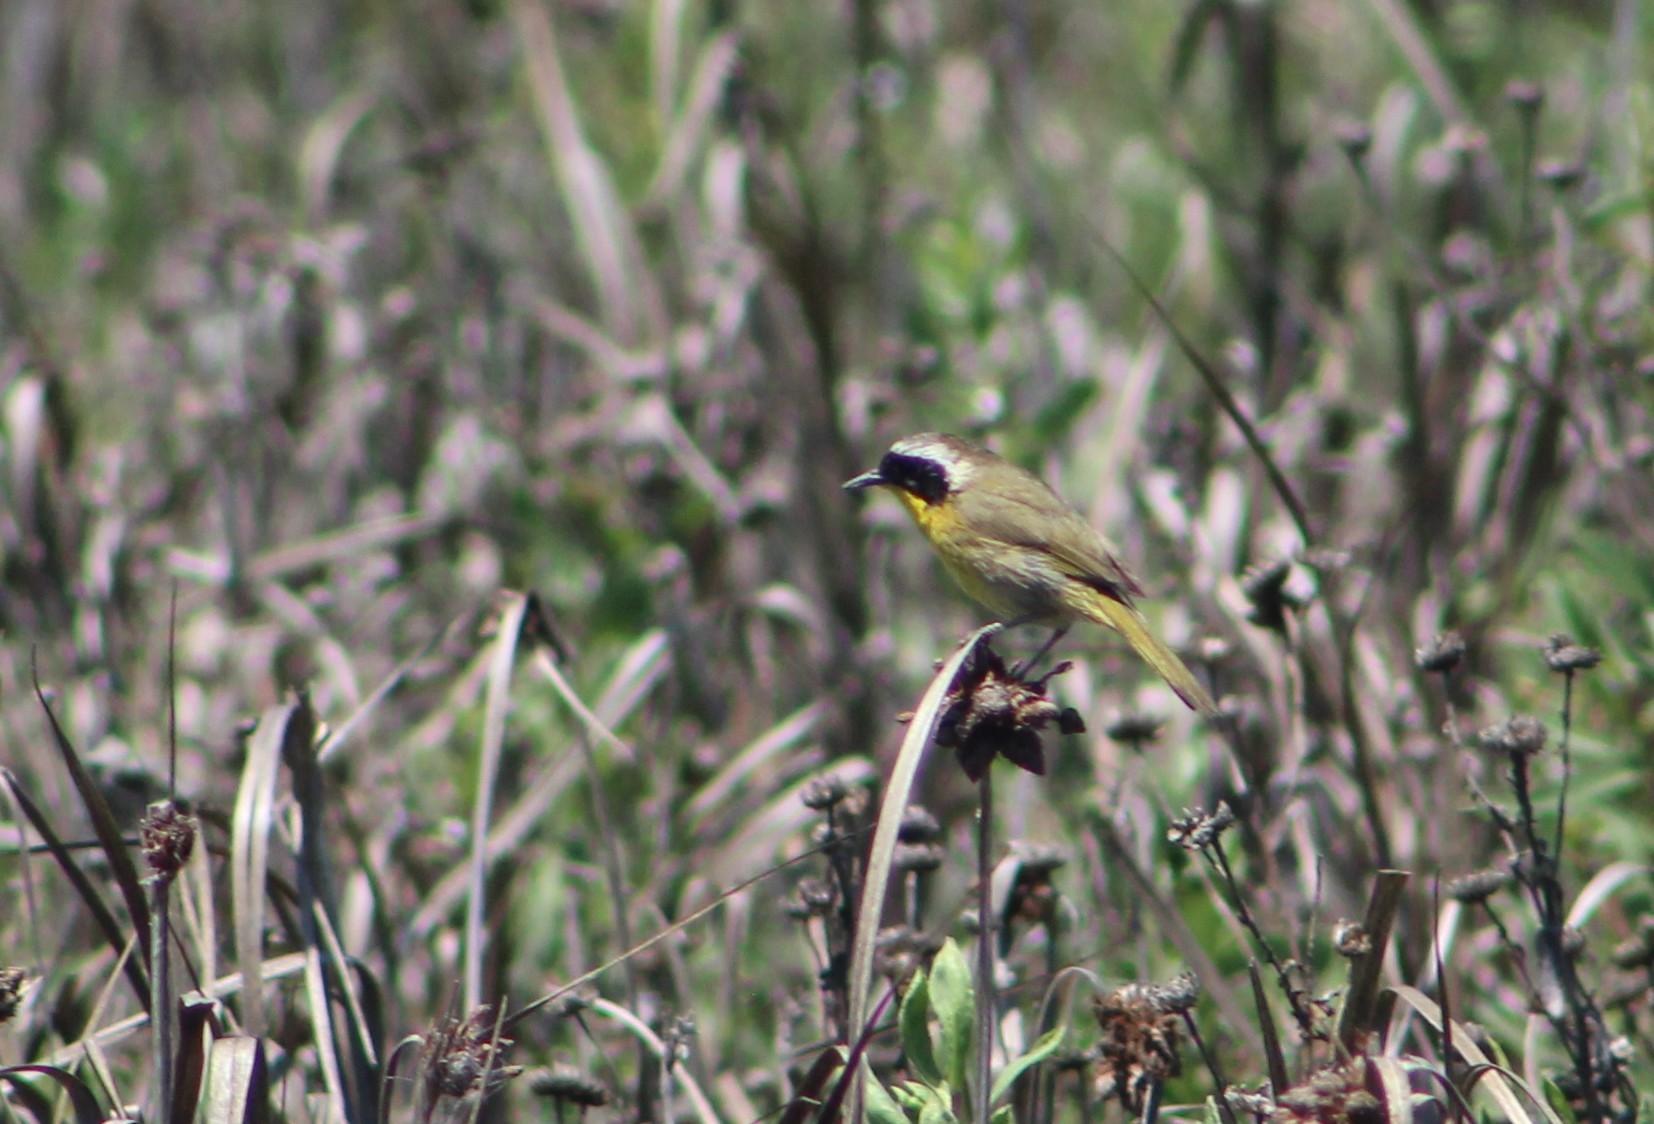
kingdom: Animalia
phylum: Chordata
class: Aves
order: Passeriformes
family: Parulidae
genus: Geothlypis
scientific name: Geothlypis trichas
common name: Common yellowthroat
